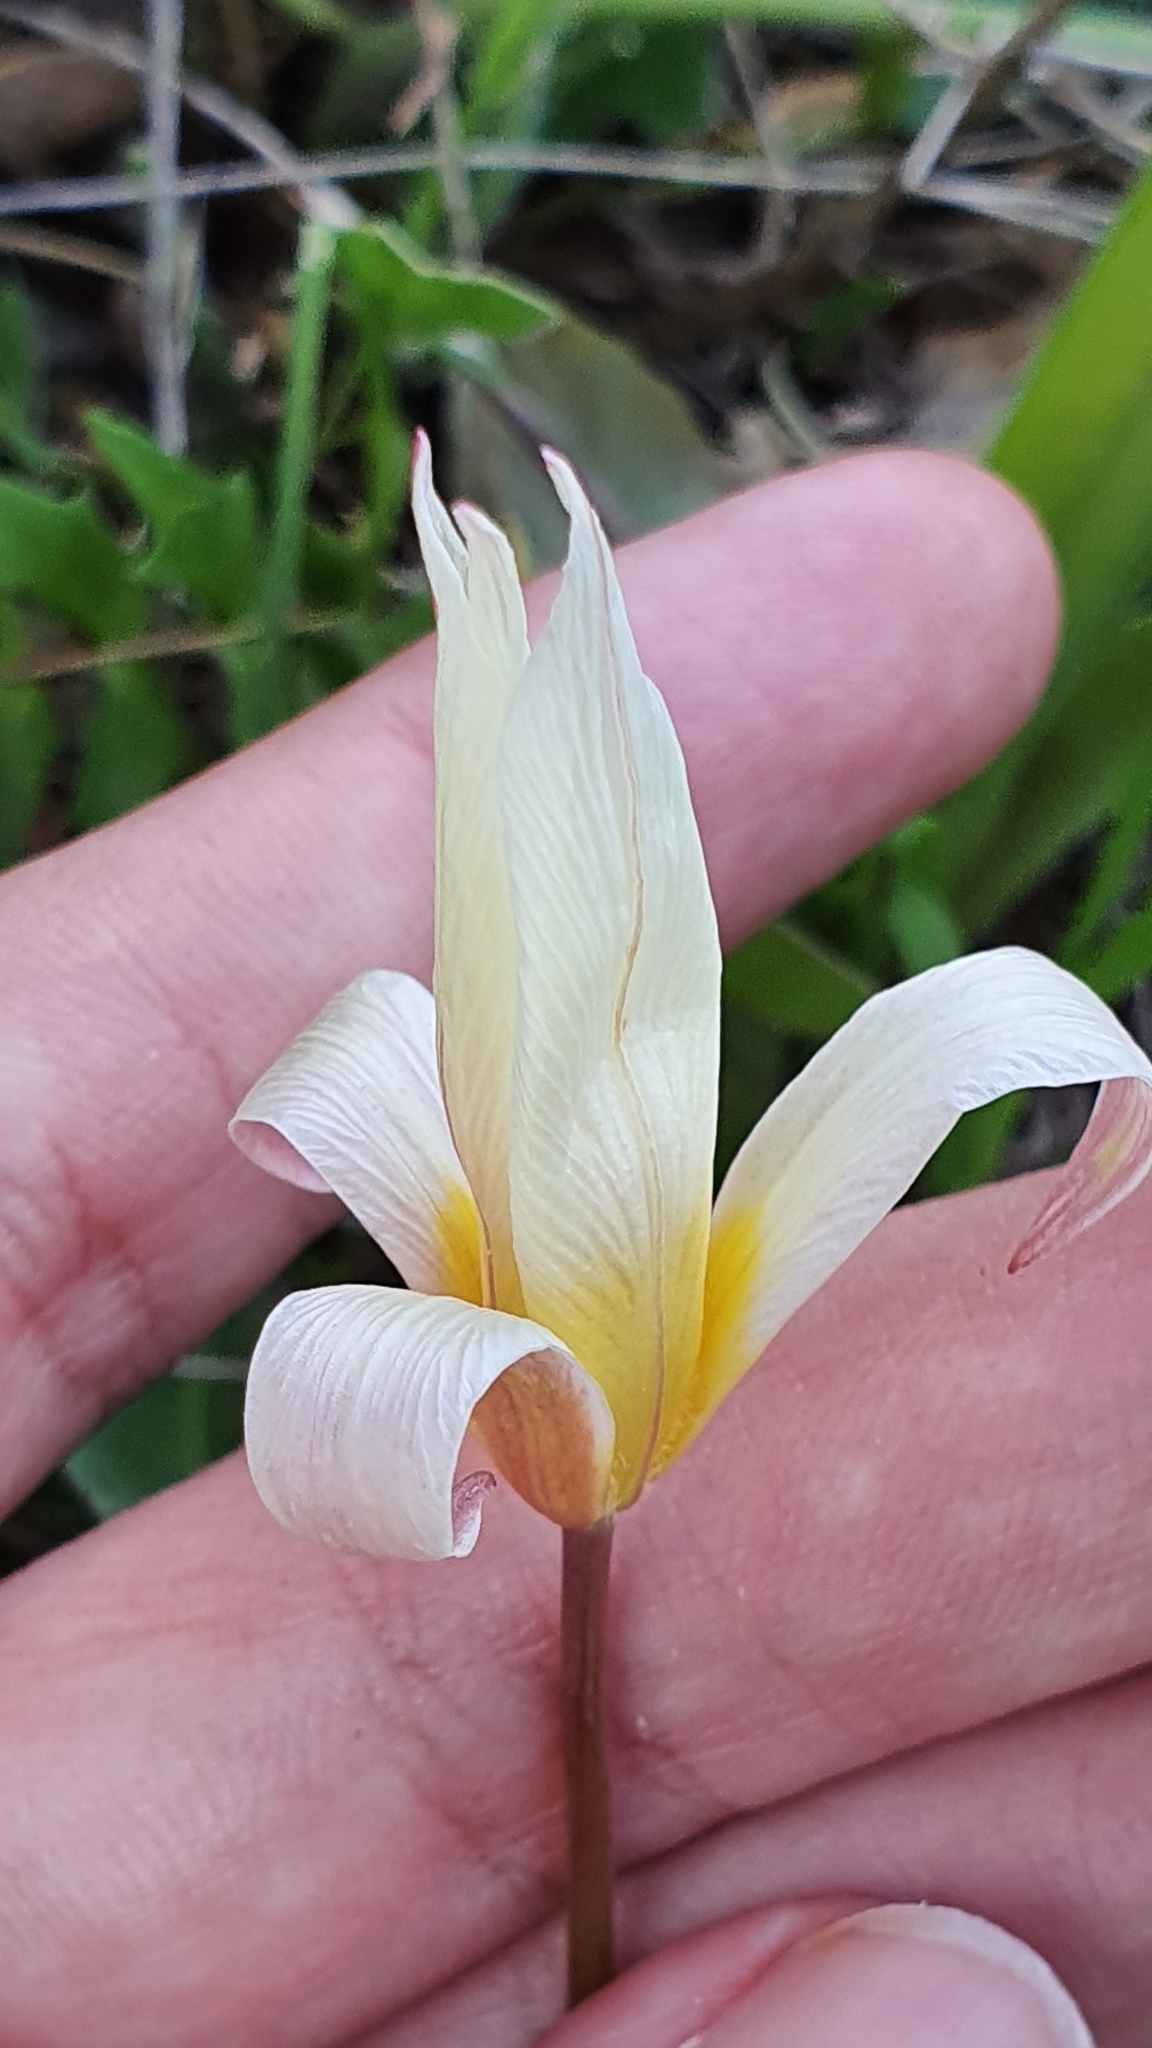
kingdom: Plantae
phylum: Tracheophyta
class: Liliopsida
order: Liliales
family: Liliaceae
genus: Tulipa
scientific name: Tulipa sylvestris
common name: Wild tulip
